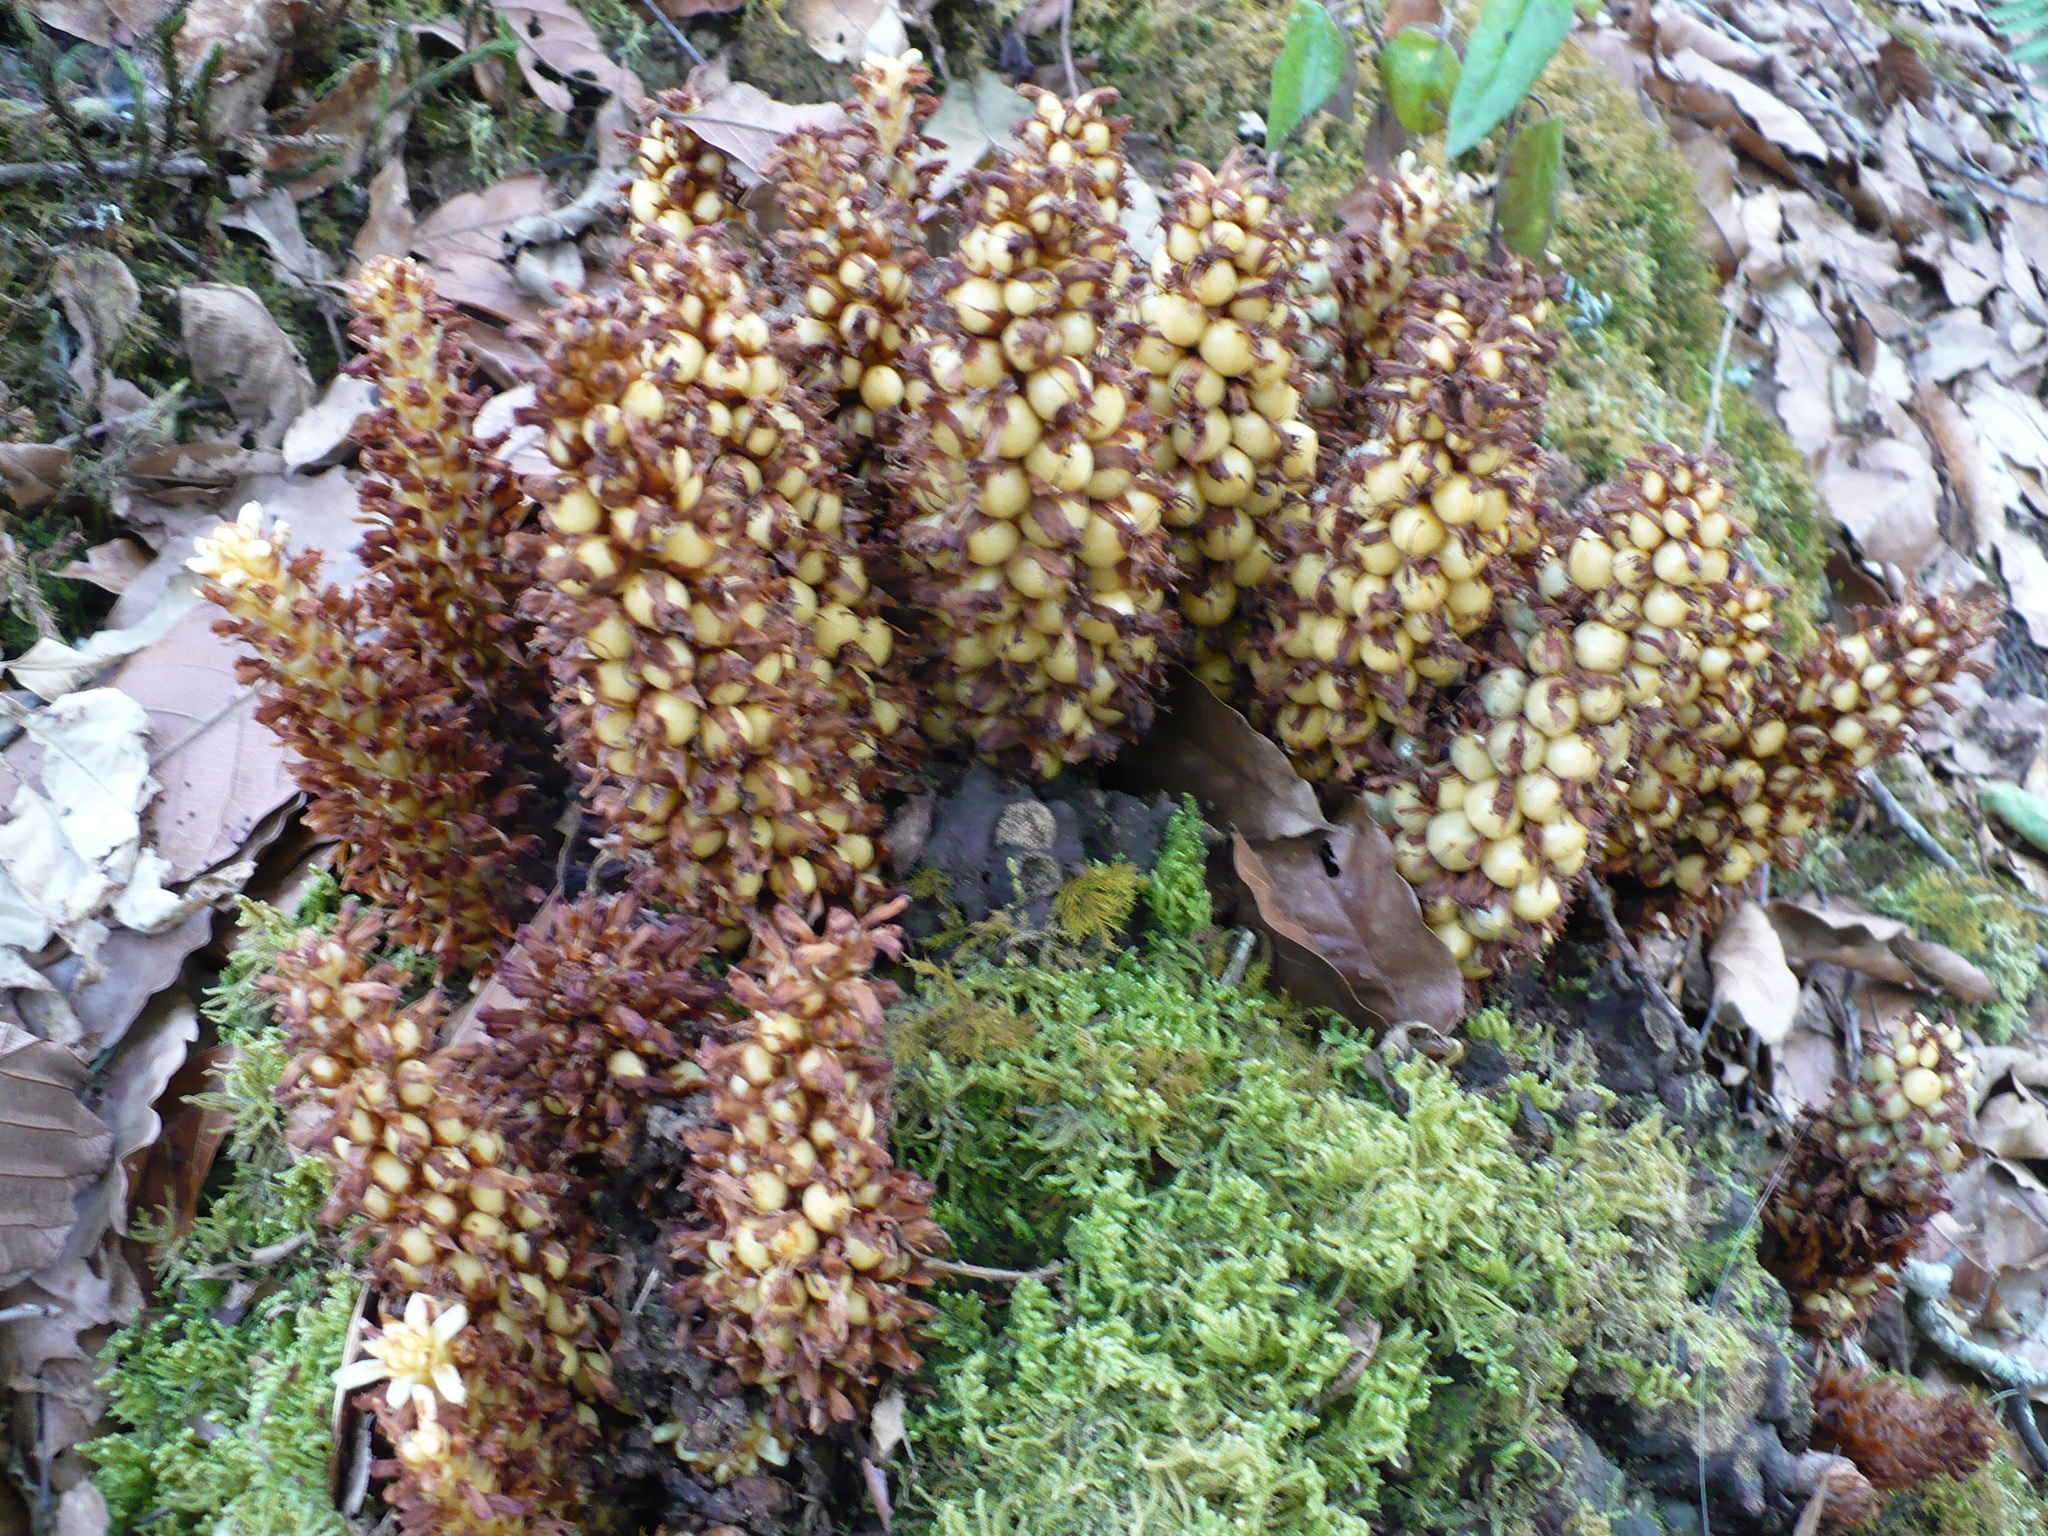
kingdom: Plantae
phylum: Tracheophyta
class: Magnoliopsida
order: Lamiales
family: Orobanchaceae
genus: Conopholis
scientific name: Conopholis panamensis
